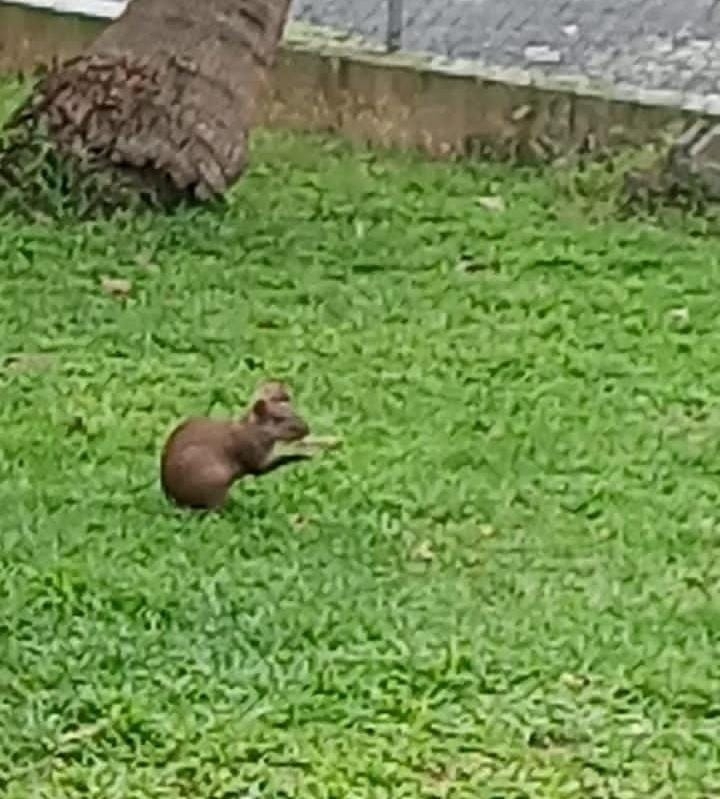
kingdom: Animalia
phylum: Chordata
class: Mammalia
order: Rodentia
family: Dasyproctidae
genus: Dasyprocta
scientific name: Dasyprocta punctata
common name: Central american agouti
